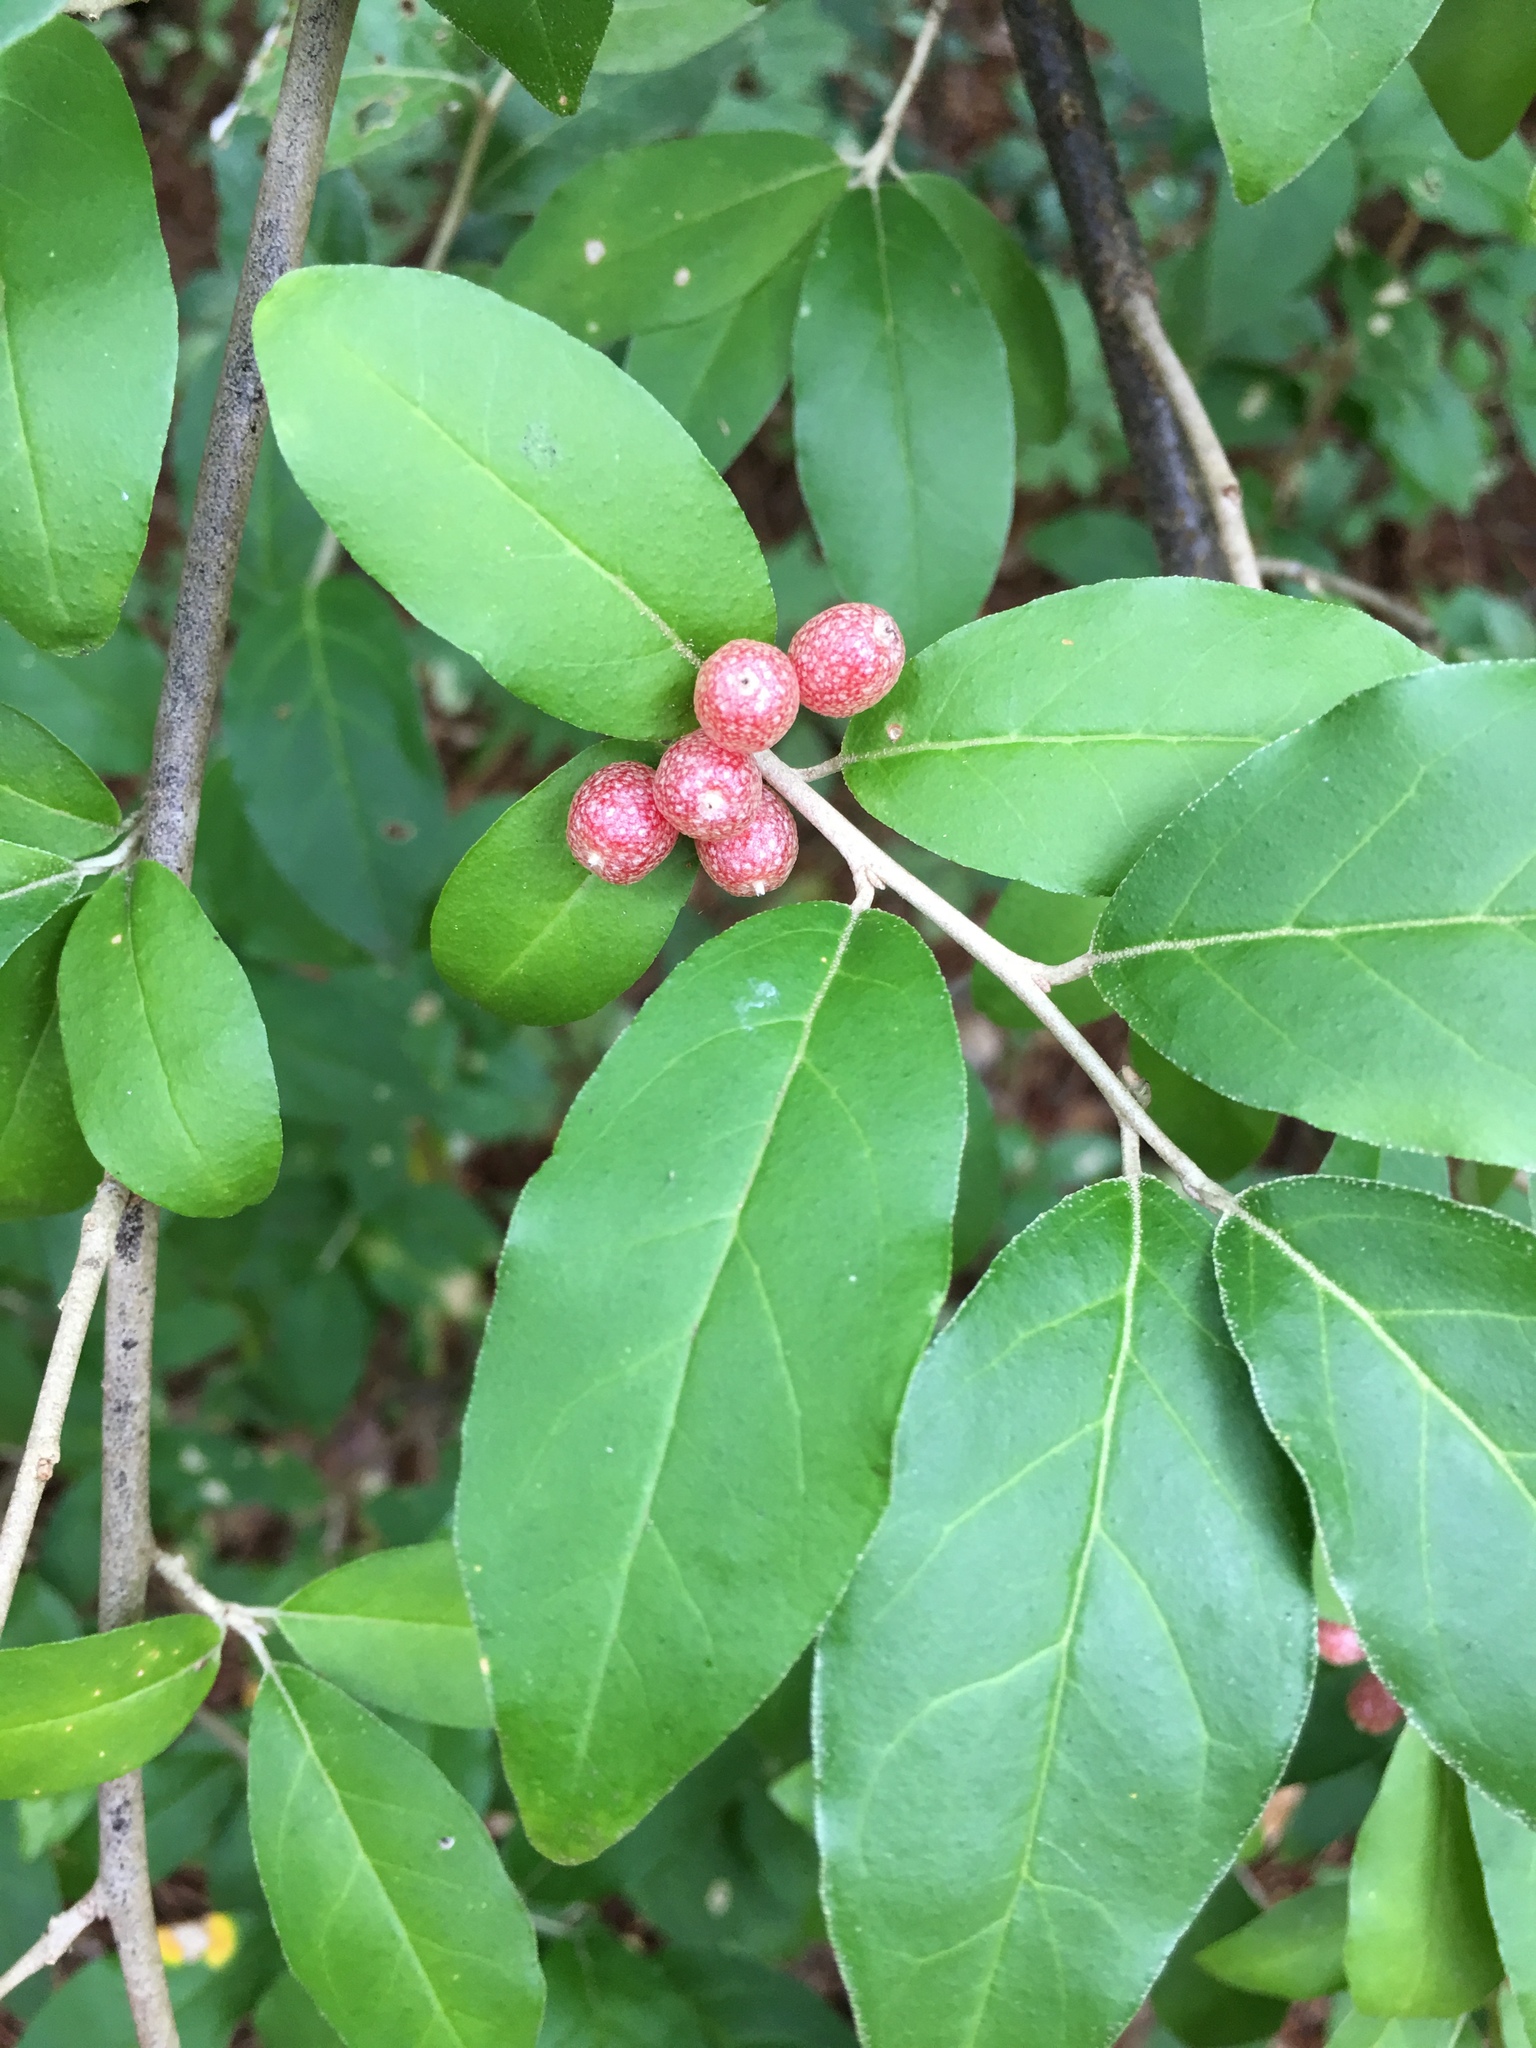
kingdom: Plantae
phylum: Tracheophyta
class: Magnoliopsida
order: Rosales
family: Elaeagnaceae
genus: Elaeagnus
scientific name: Elaeagnus umbellata
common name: Autumn olive
